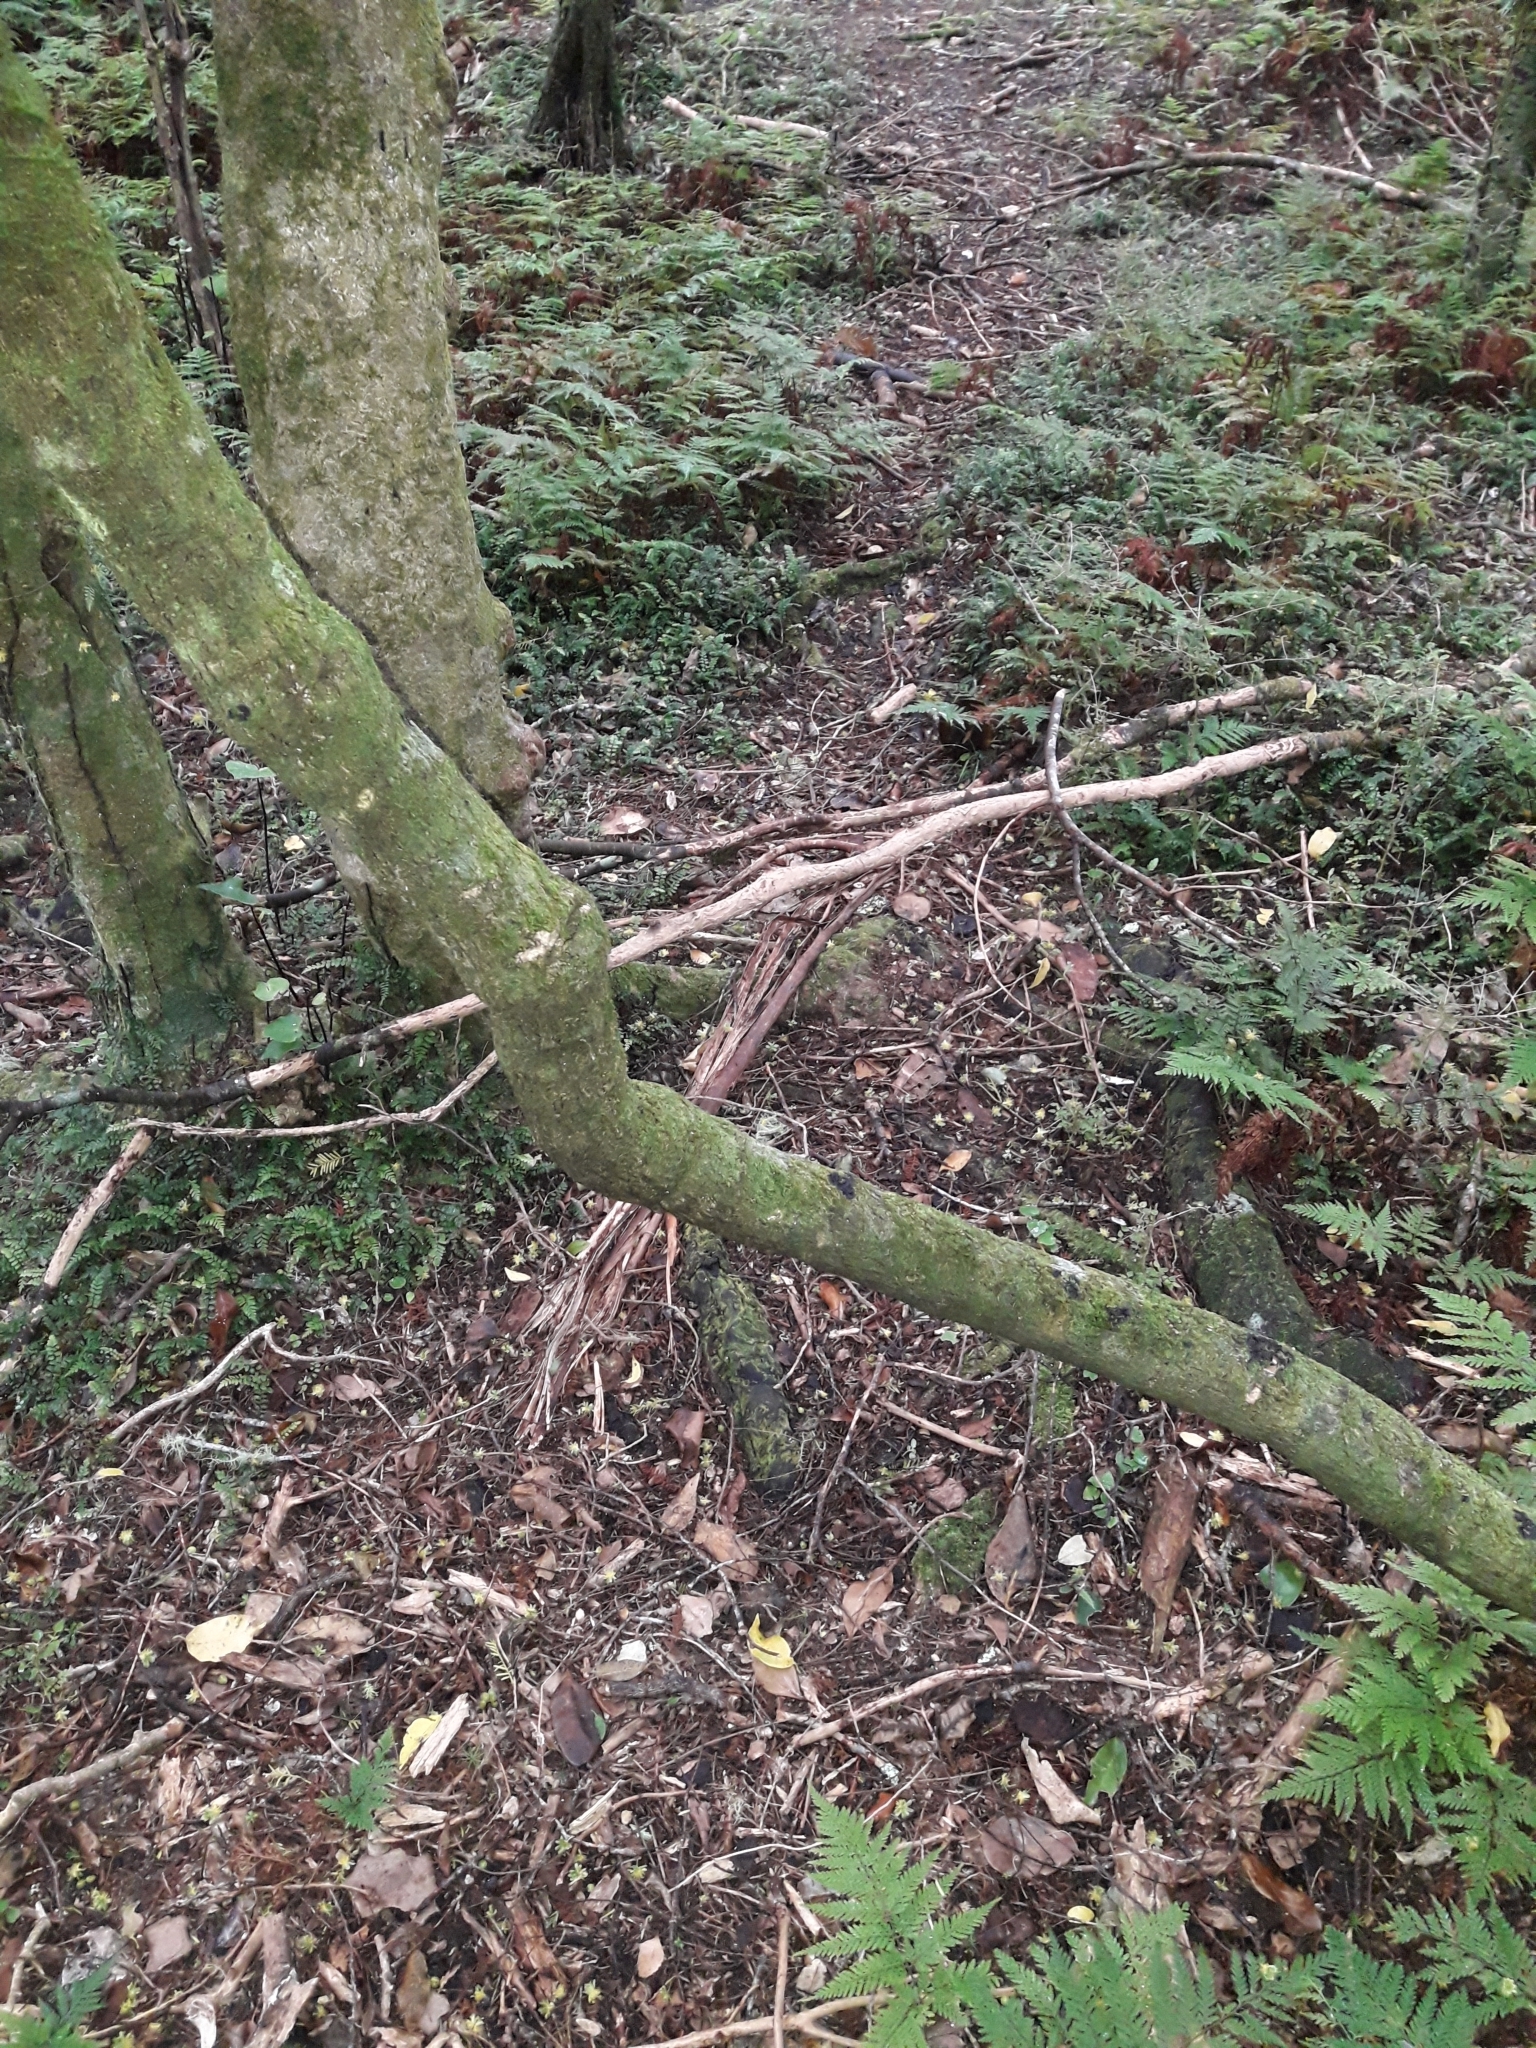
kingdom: Plantae
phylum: Tracheophyta
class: Magnoliopsida
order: Malpighiales
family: Passifloraceae
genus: Passiflora
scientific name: Passiflora tetrandra
